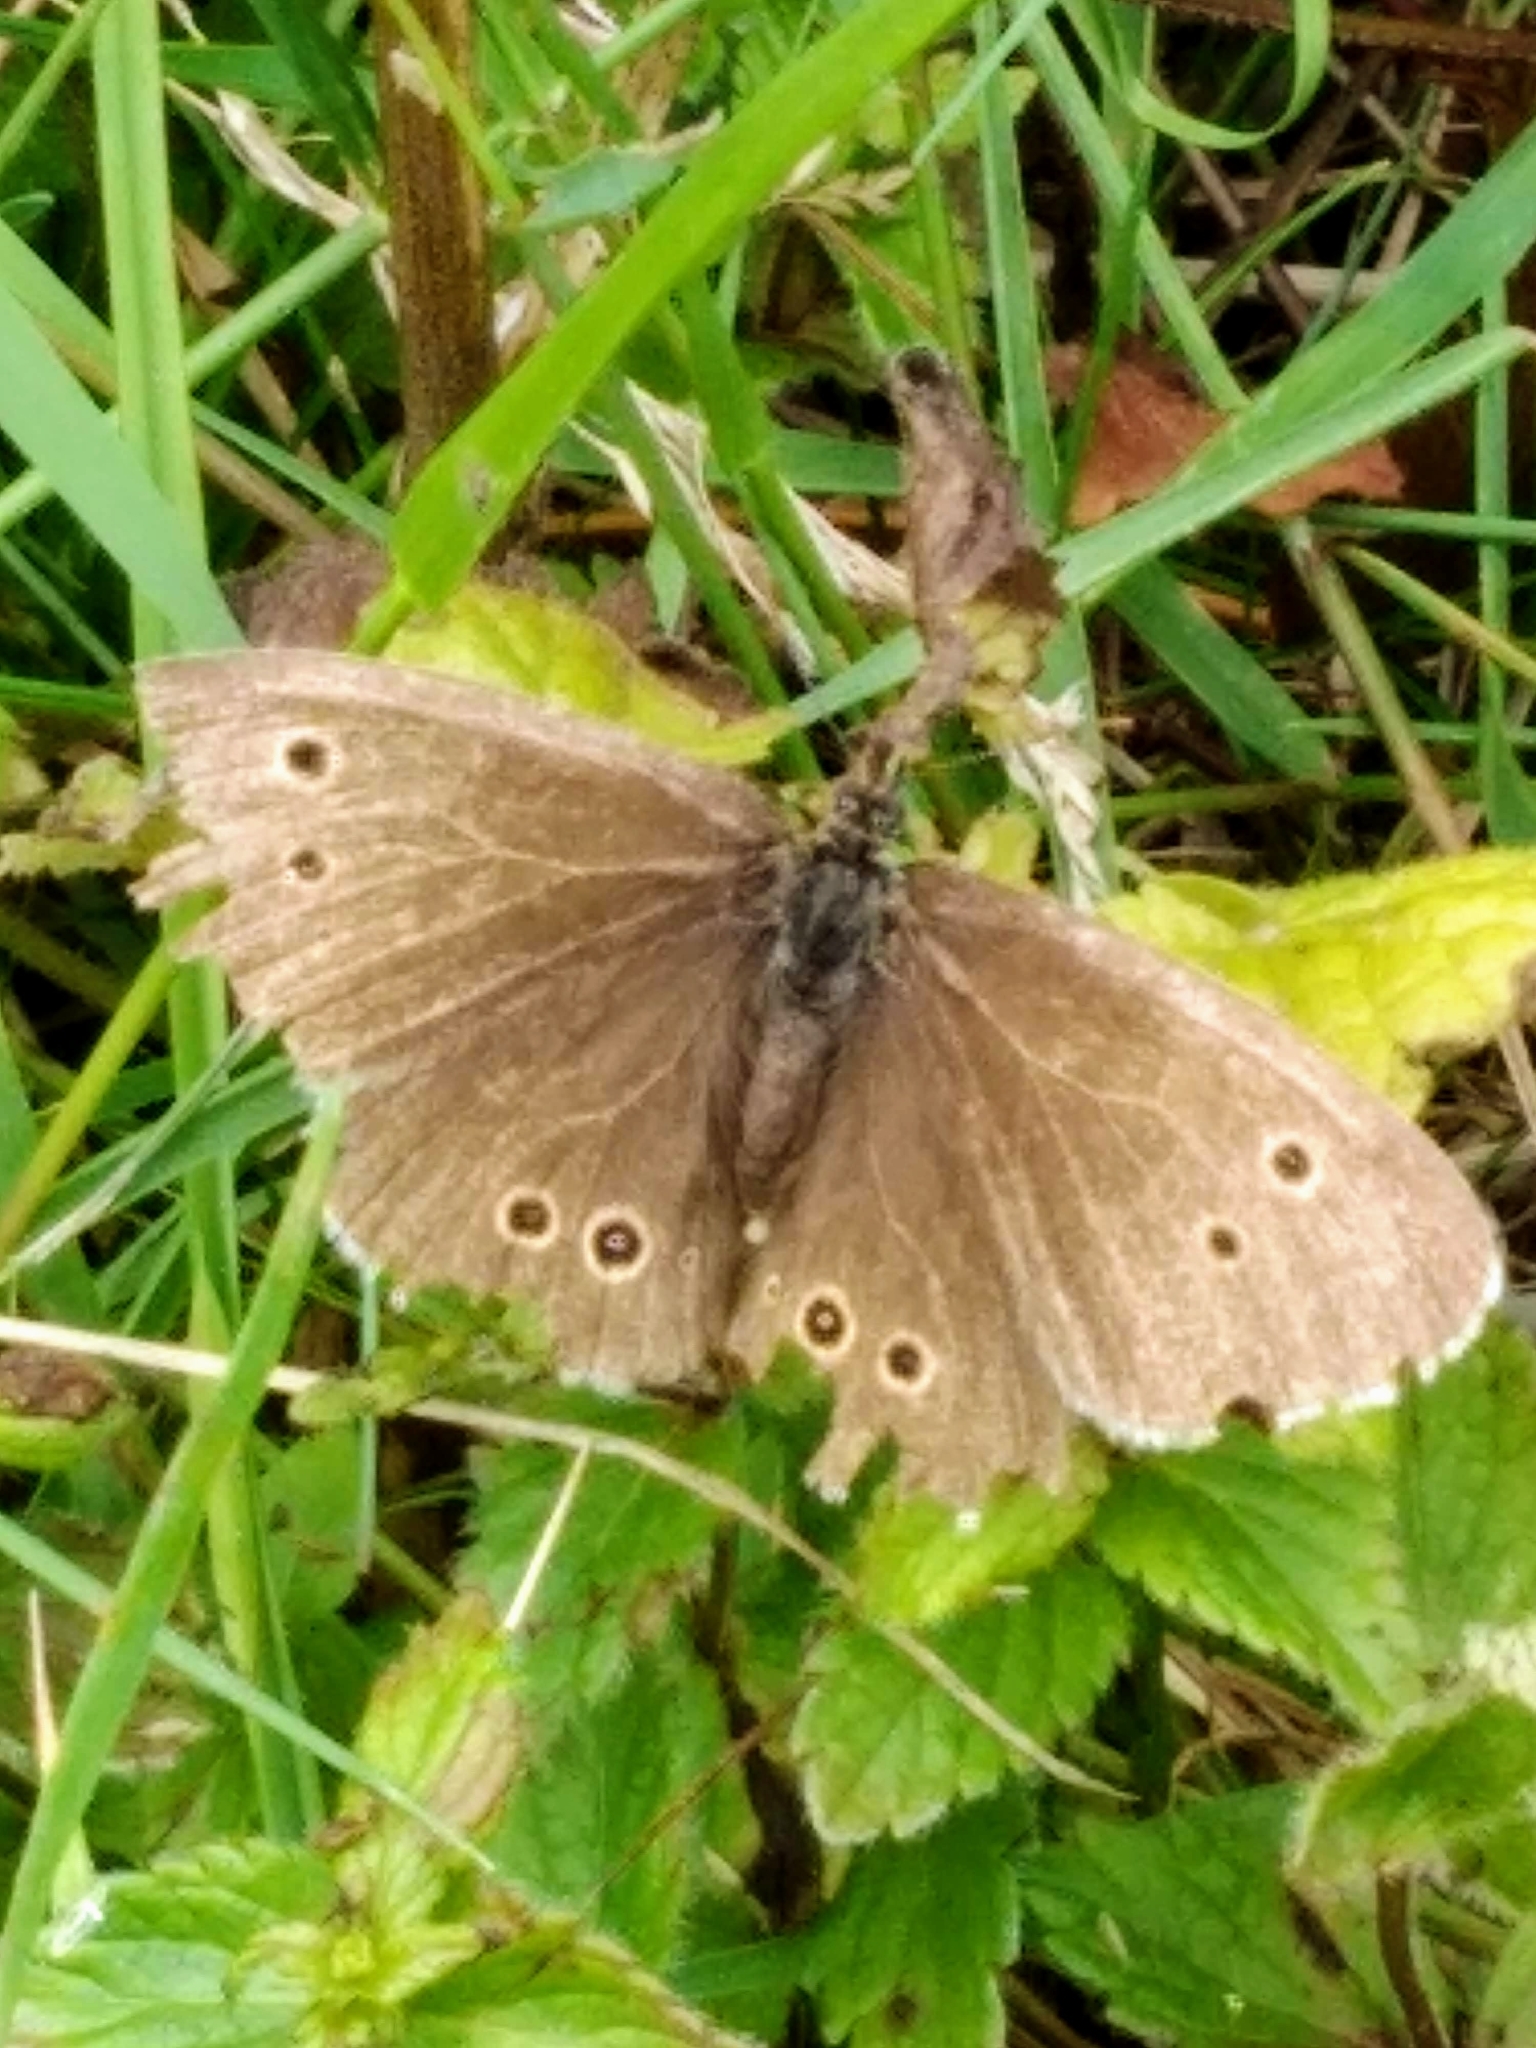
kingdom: Animalia
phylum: Arthropoda
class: Insecta
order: Lepidoptera
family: Nymphalidae
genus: Aphantopus
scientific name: Aphantopus hyperantus
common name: Ringlet
